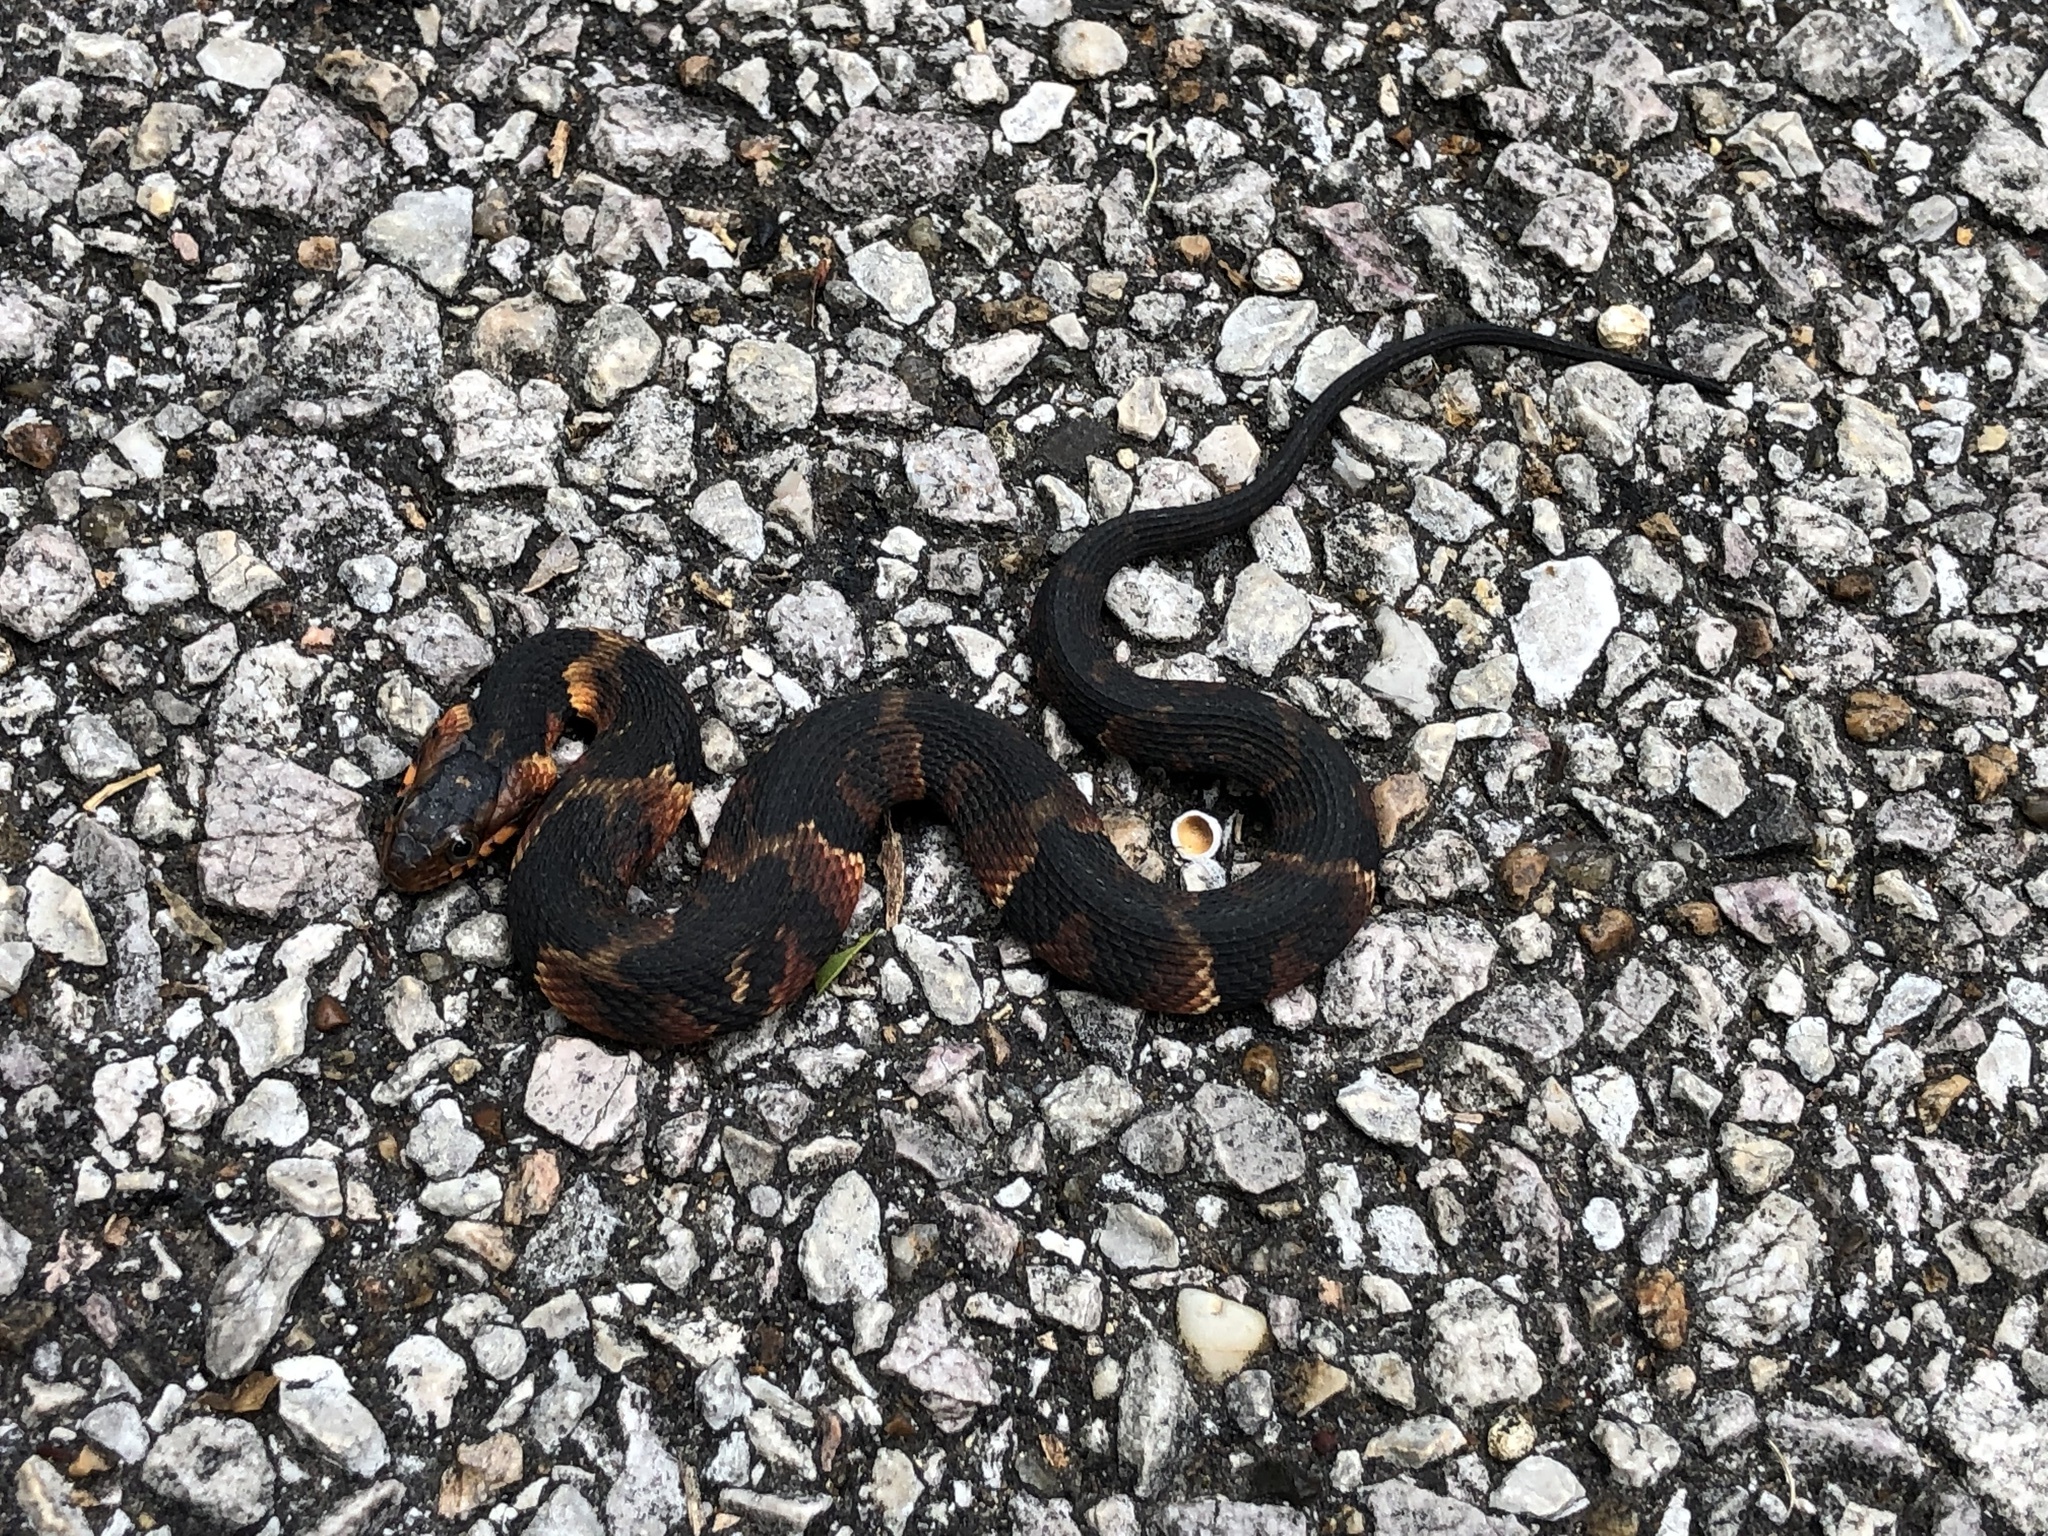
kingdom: Animalia
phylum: Chordata
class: Squamata
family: Colubridae
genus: Nerodia
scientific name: Nerodia fasciata
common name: Southern water snake
